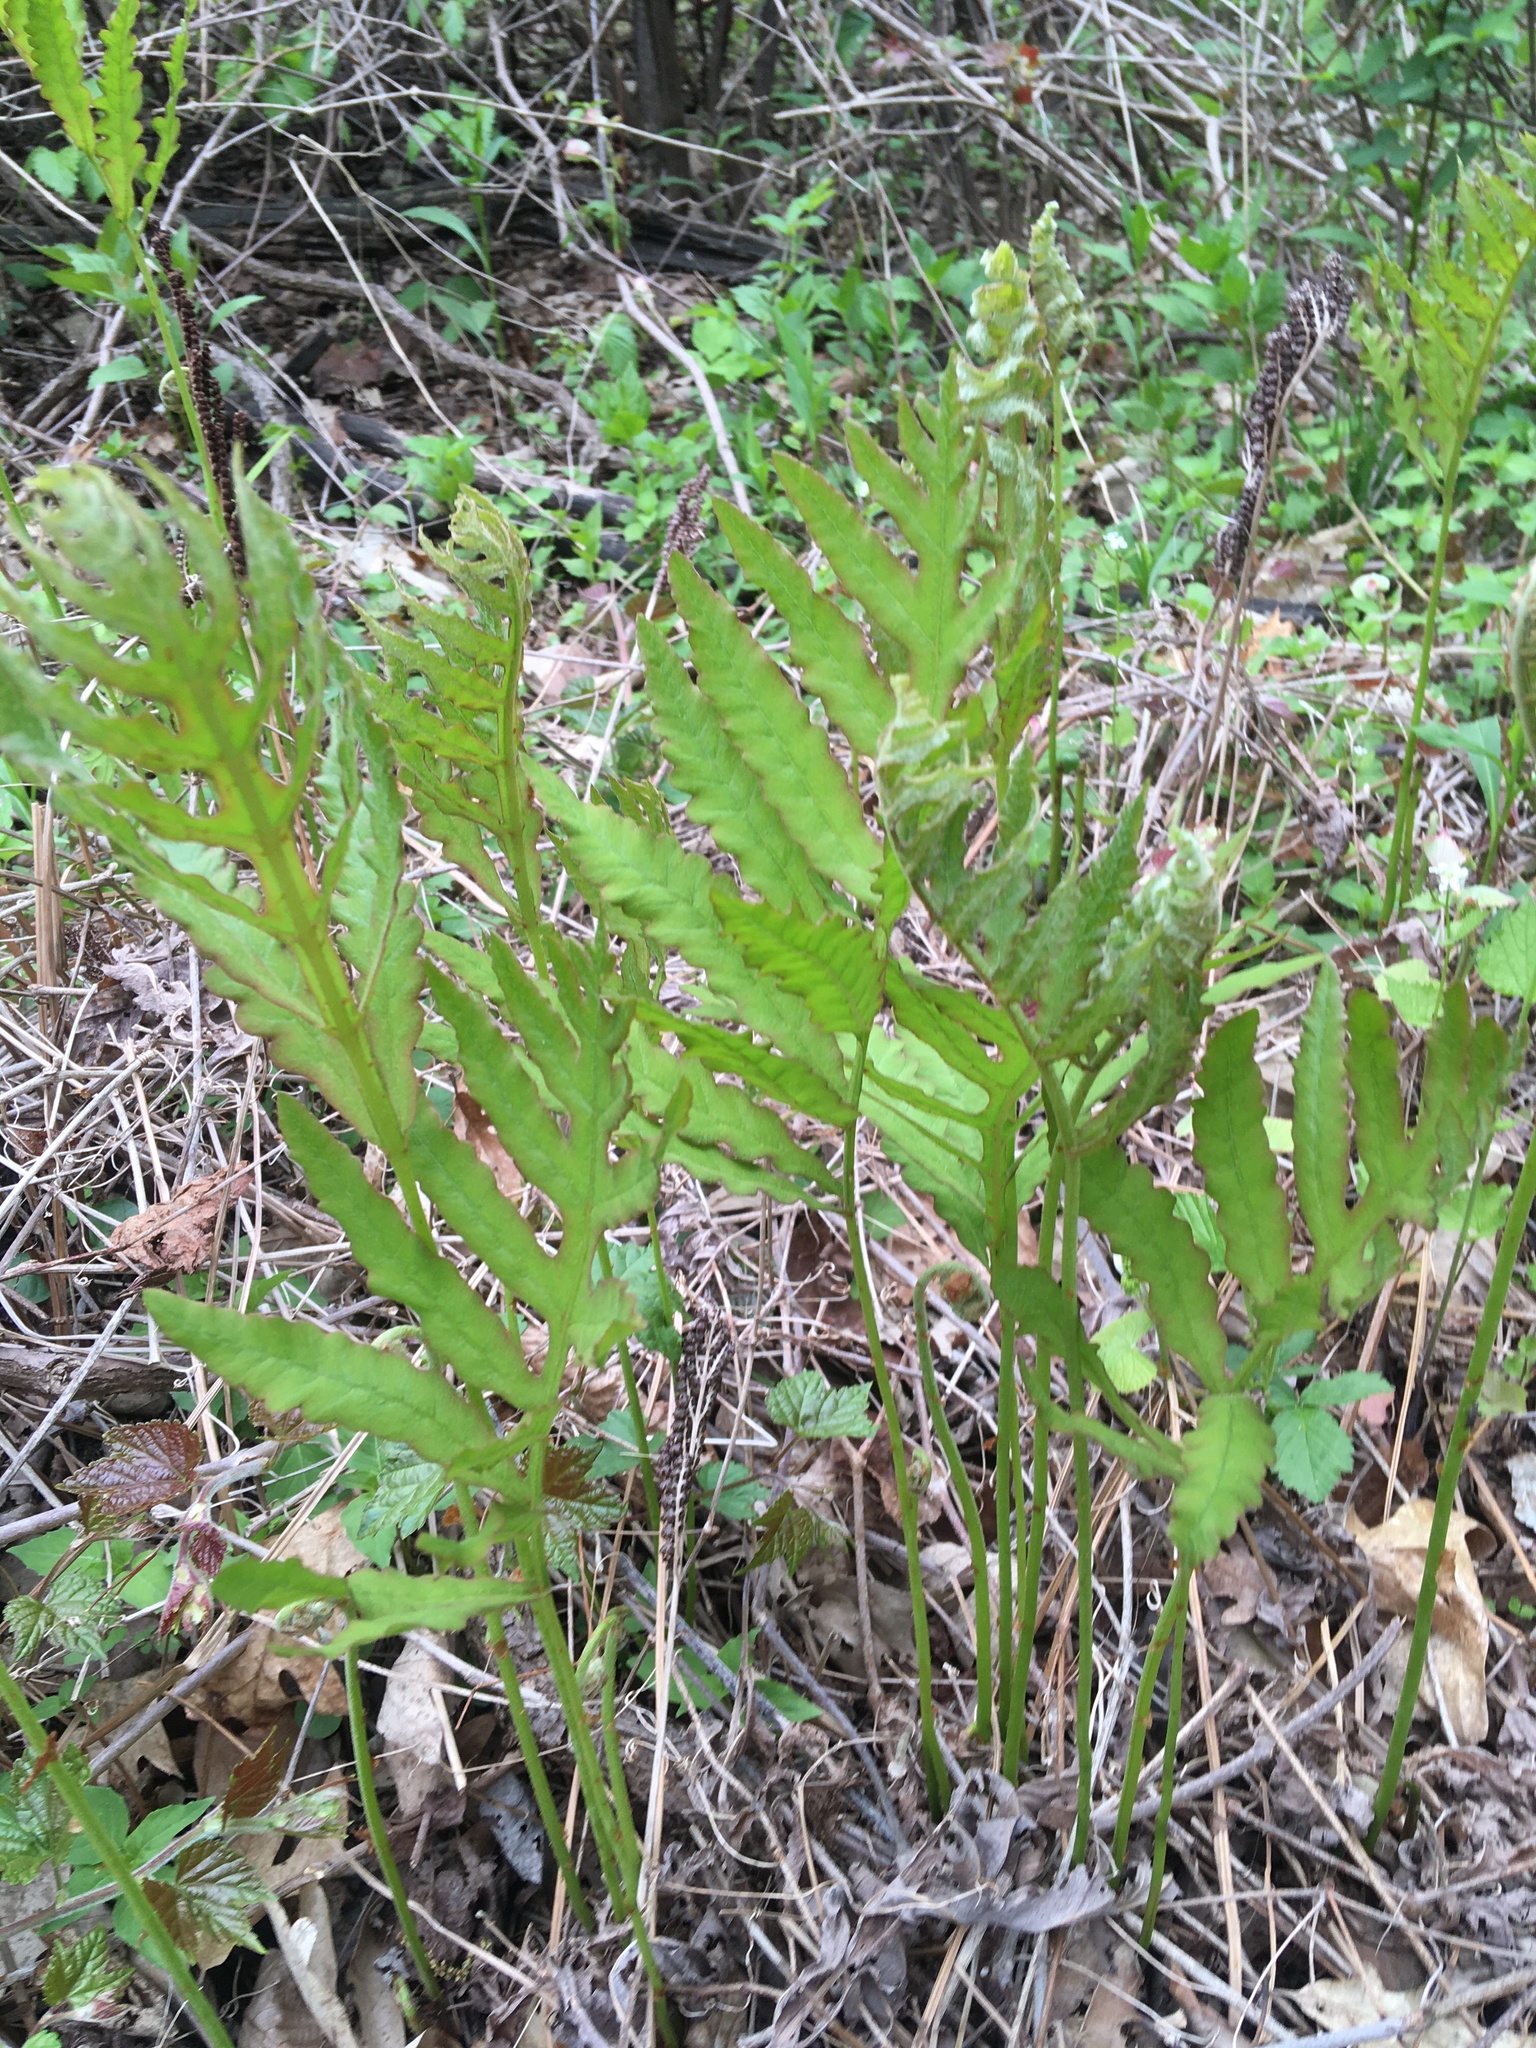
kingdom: Plantae
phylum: Tracheophyta
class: Polypodiopsida
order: Polypodiales
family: Onocleaceae
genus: Onoclea
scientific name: Onoclea sensibilis
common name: Sensitive fern
